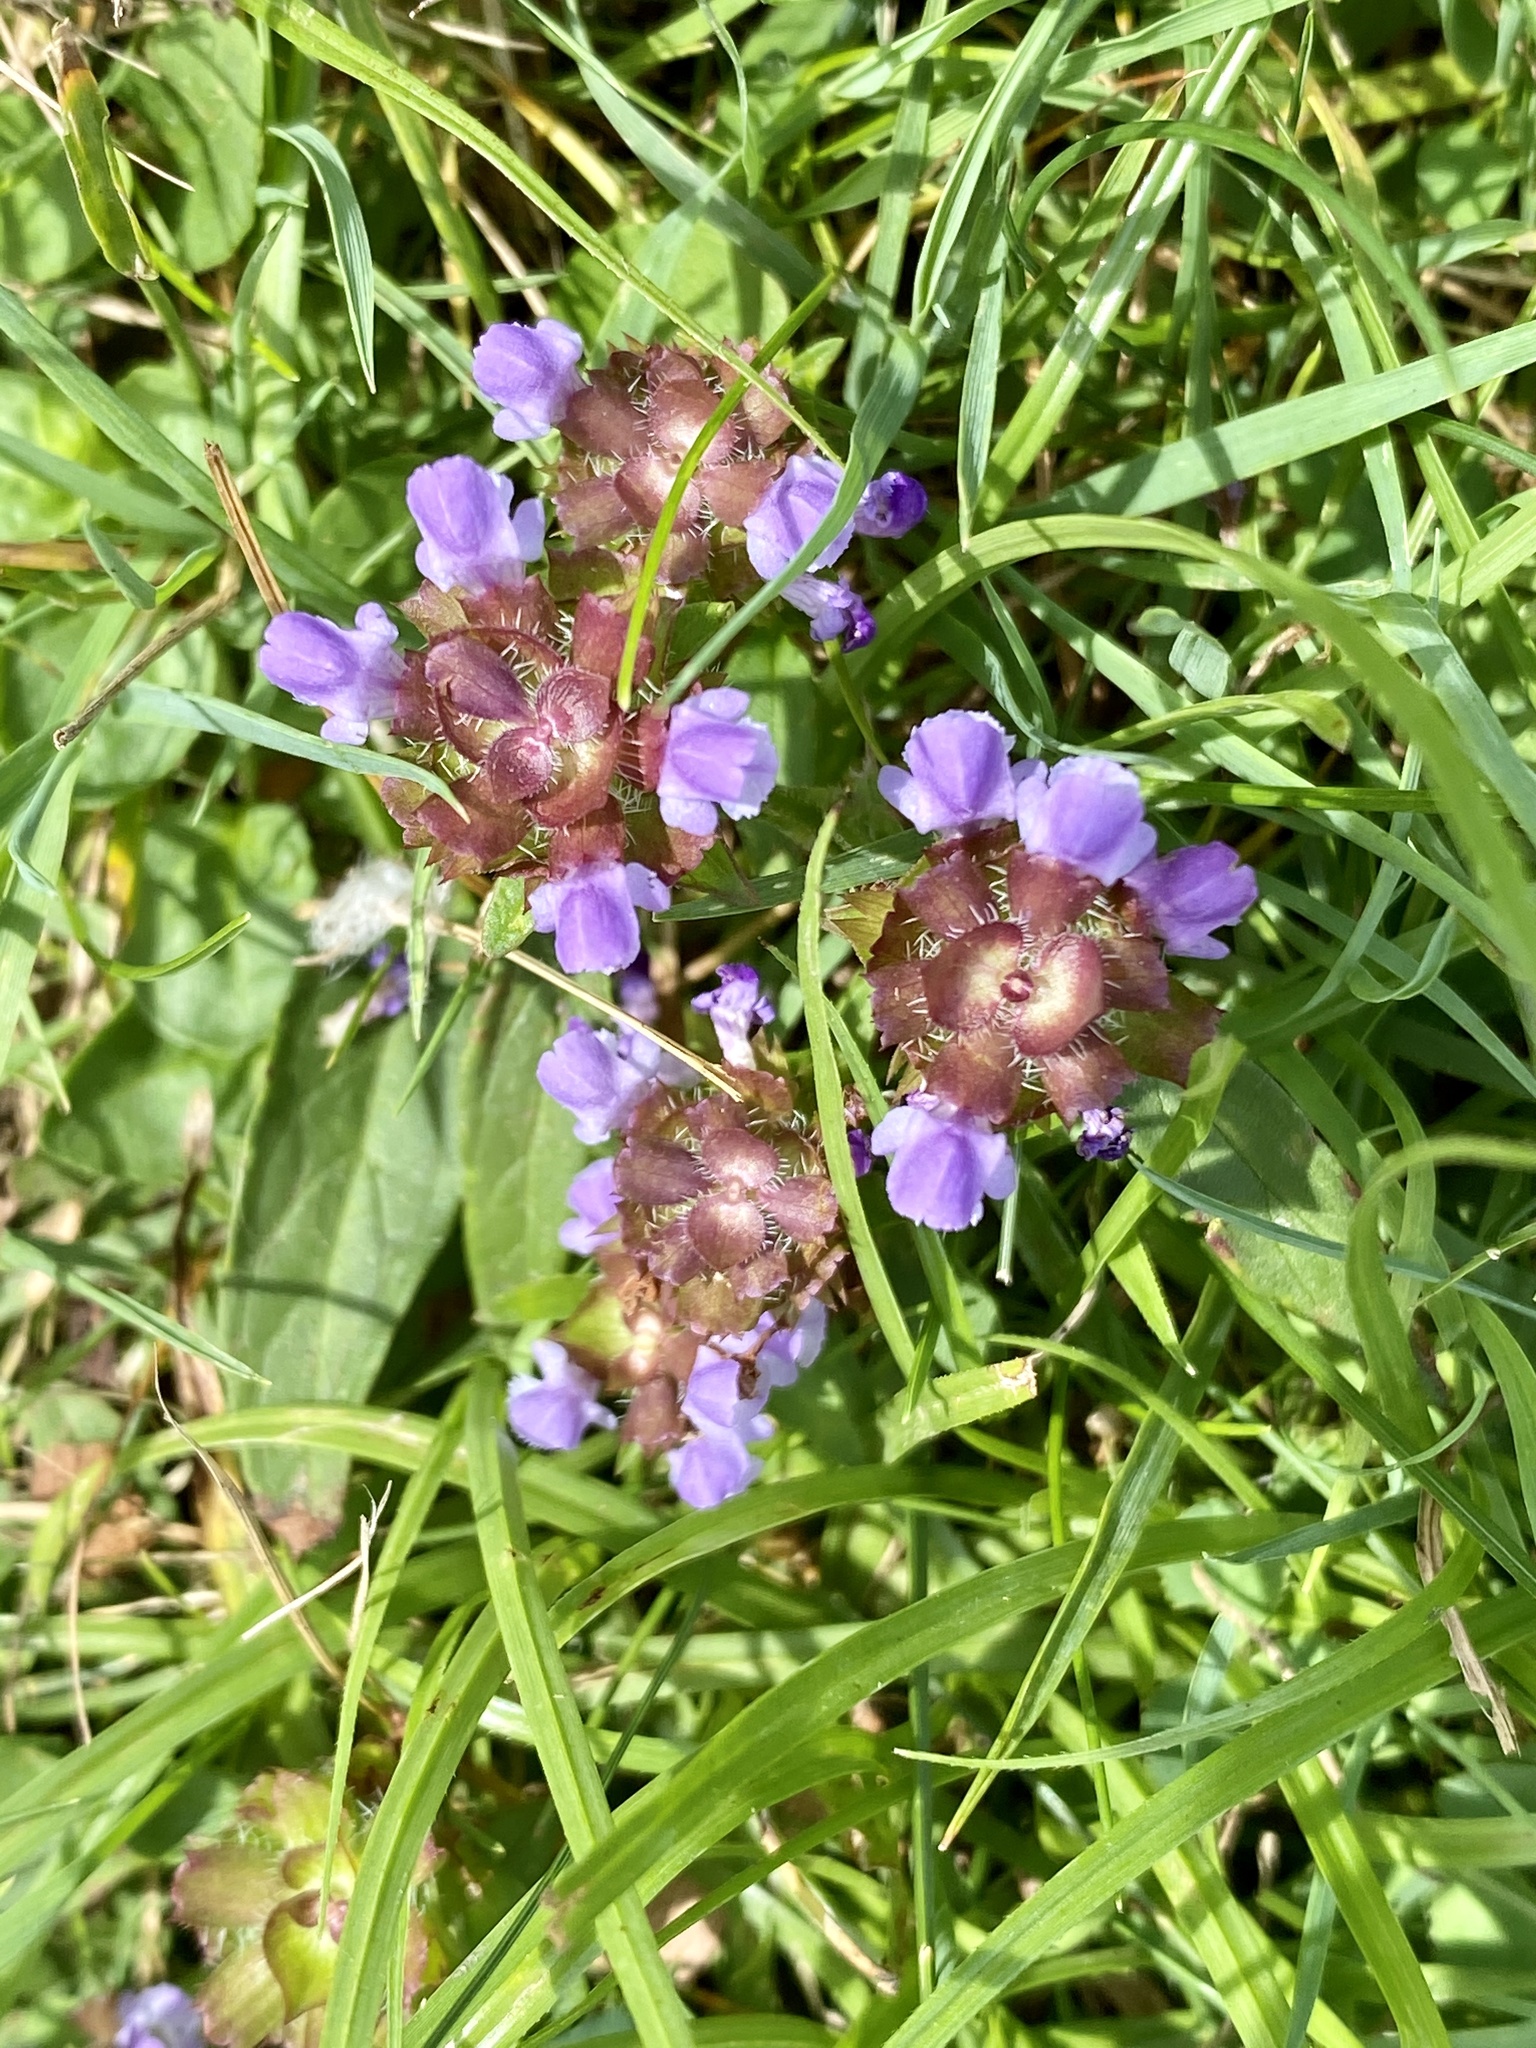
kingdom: Plantae
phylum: Tracheophyta
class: Magnoliopsida
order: Lamiales
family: Lamiaceae
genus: Prunella
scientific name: Prunella vulgaris
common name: Heal-all
